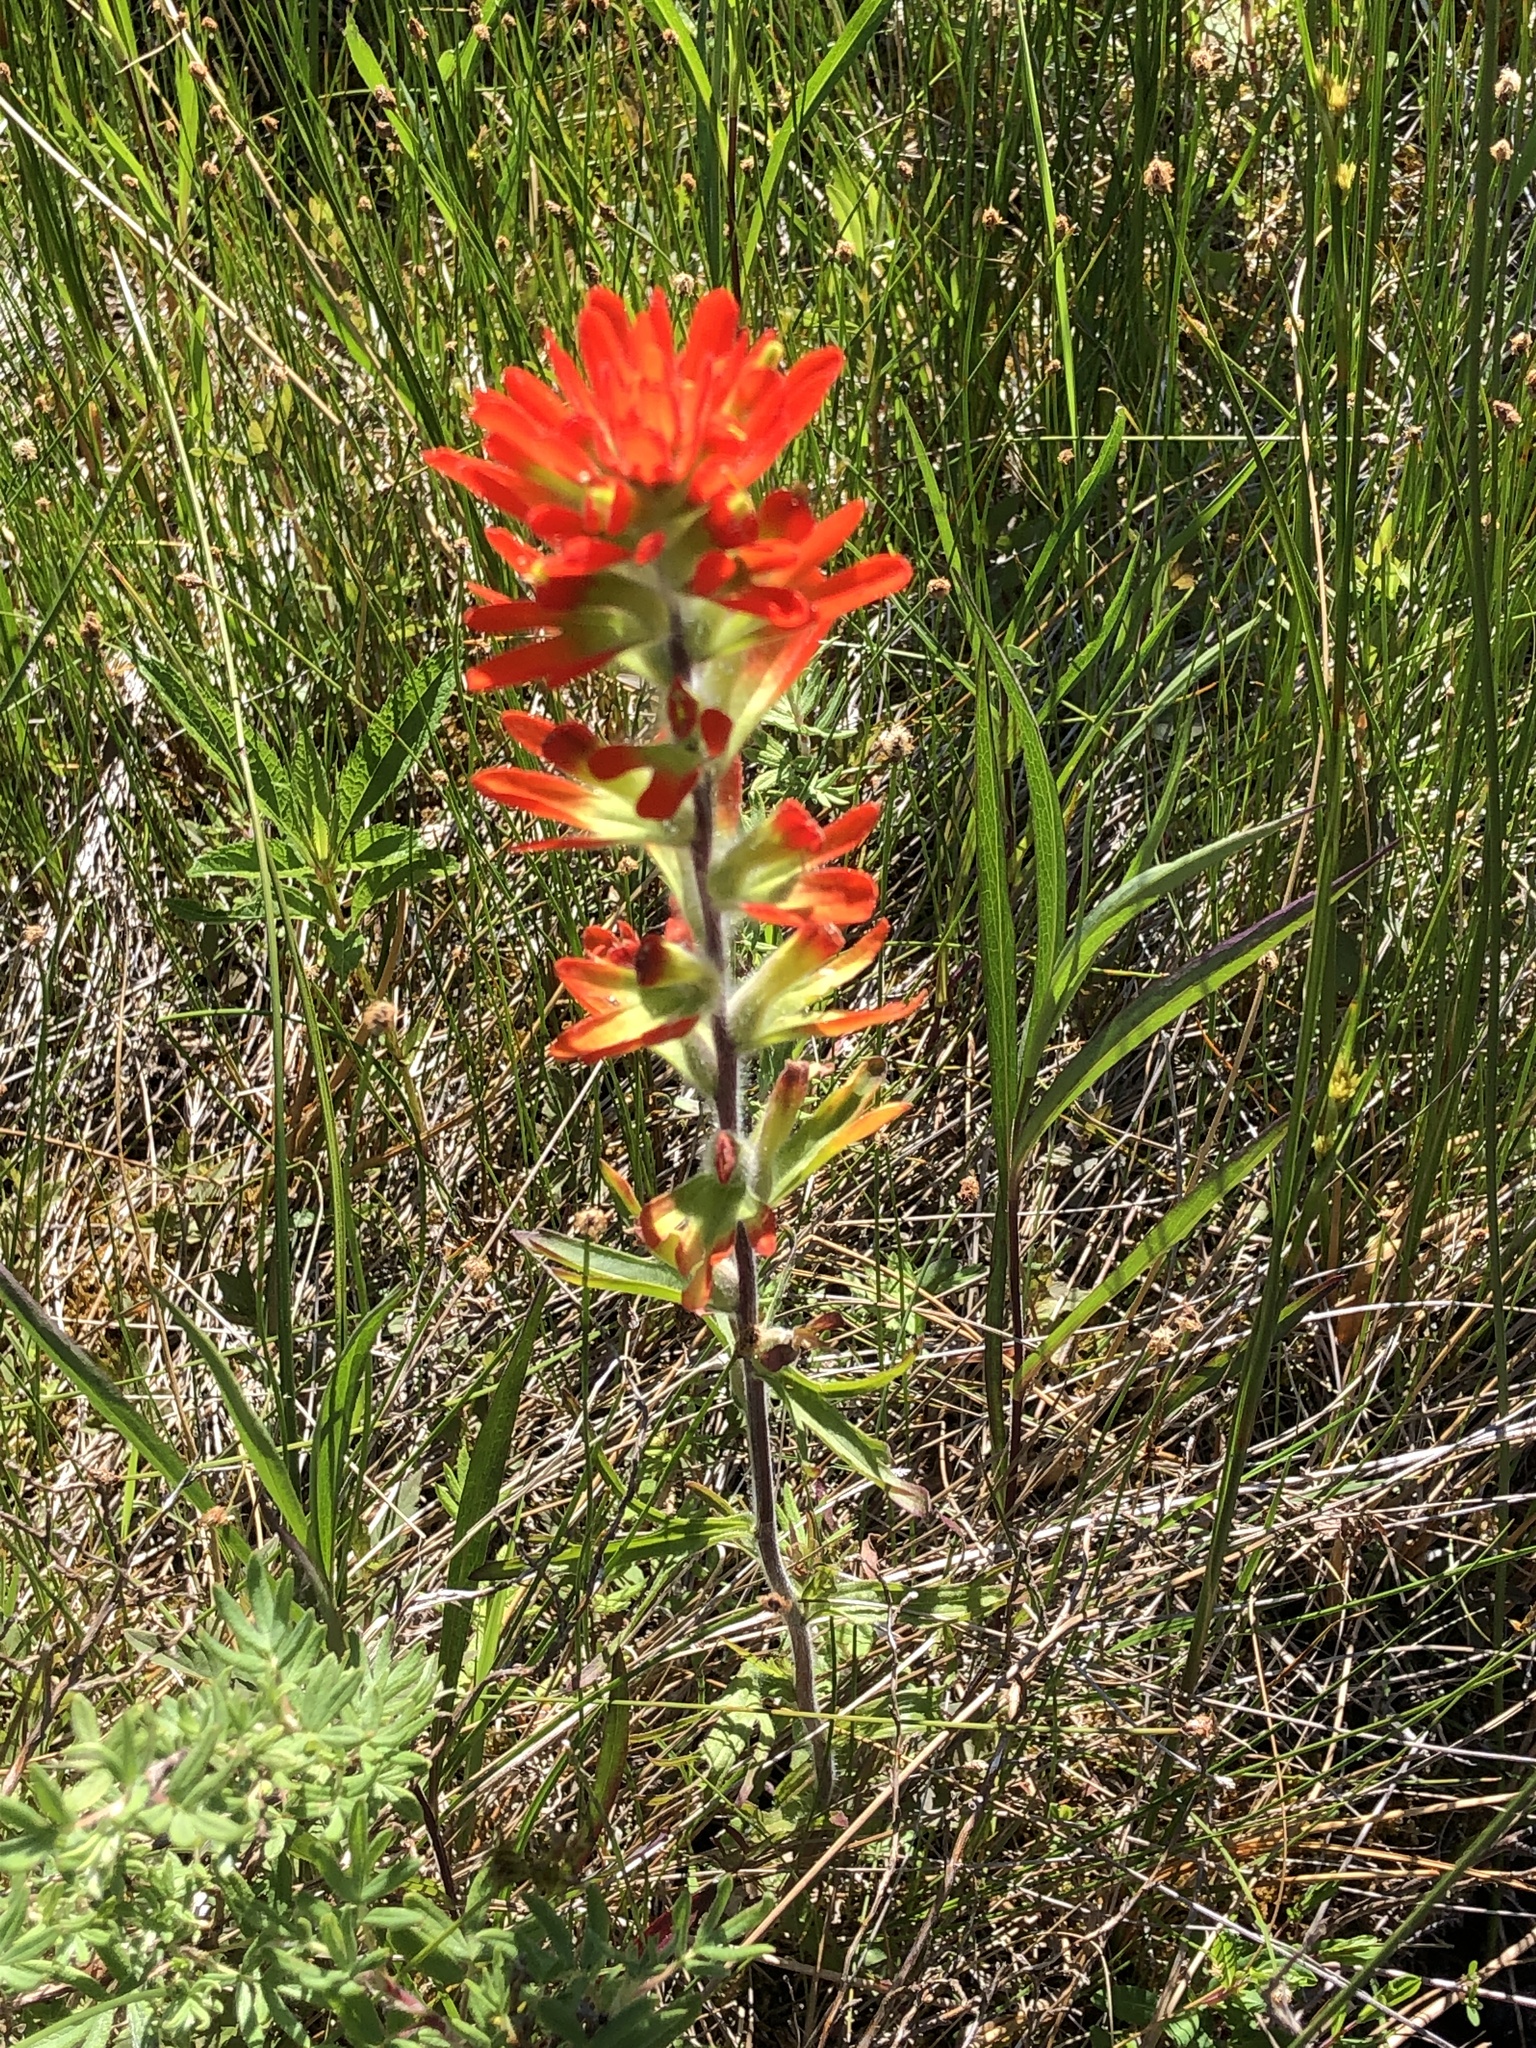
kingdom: Plantae
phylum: Tracheophyta
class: Magnoliopsida
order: Lamiales
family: Orobanchaceae
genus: Castilleja
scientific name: Castilleja coccinea
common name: Scarlet paintbrush
